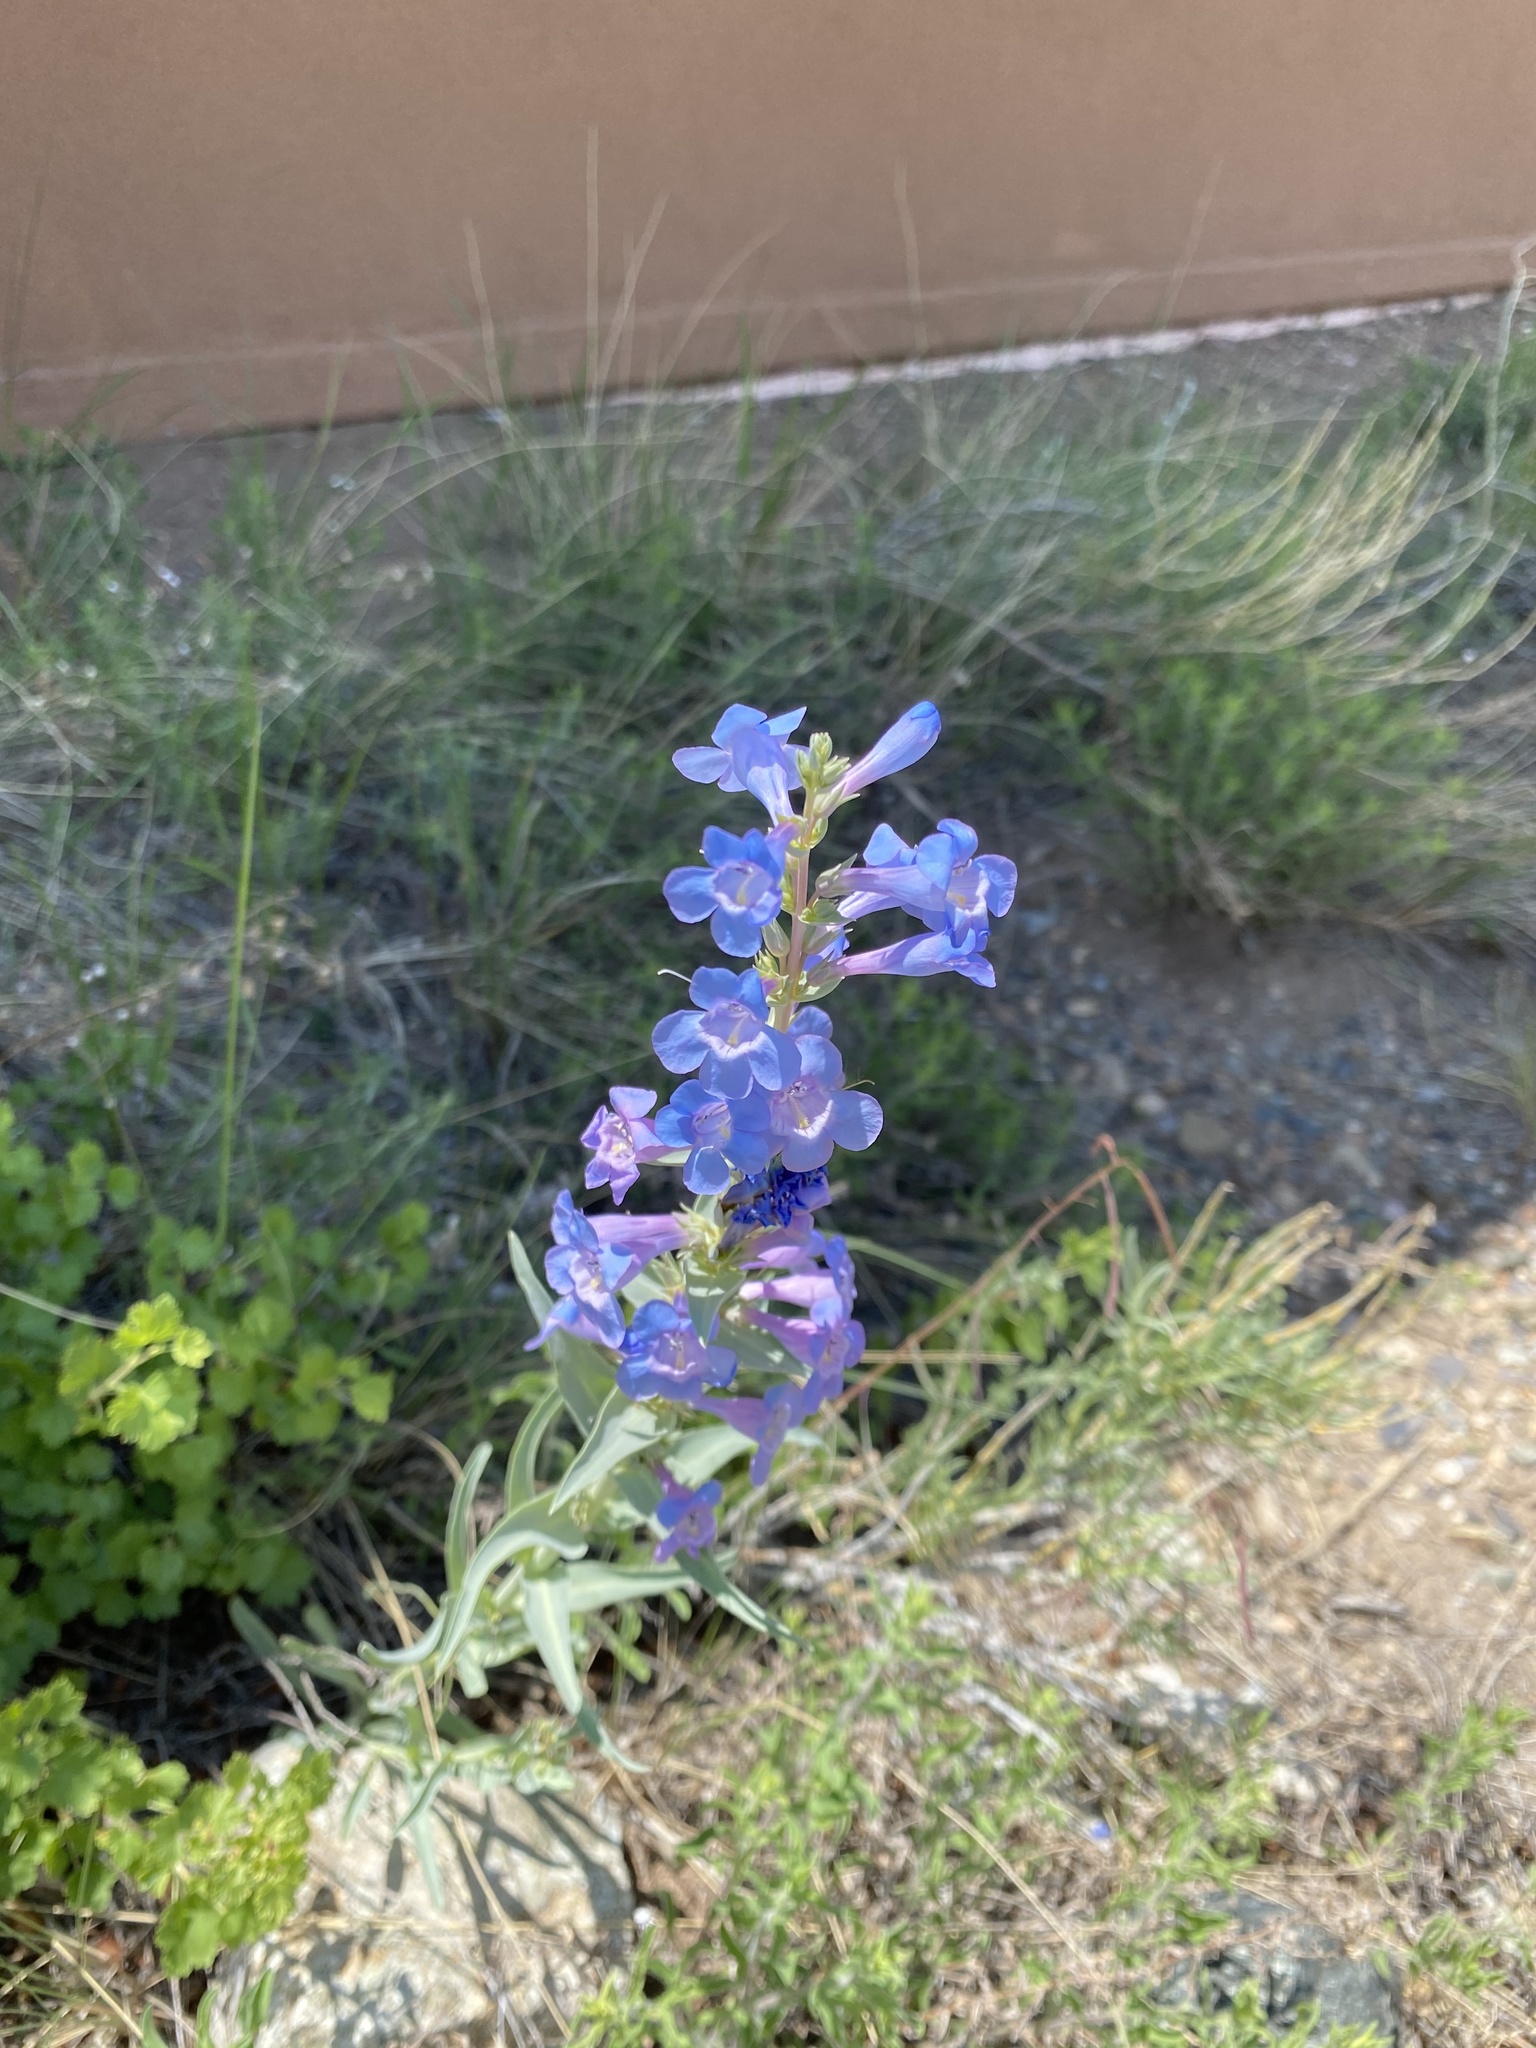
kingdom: Plantae
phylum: Tracheophyta
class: Magnoliopsida
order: Lamiales
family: Plantaginaceae
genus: Penstemon
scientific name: Penstemon angustifolius
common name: Narrow beardtongue
